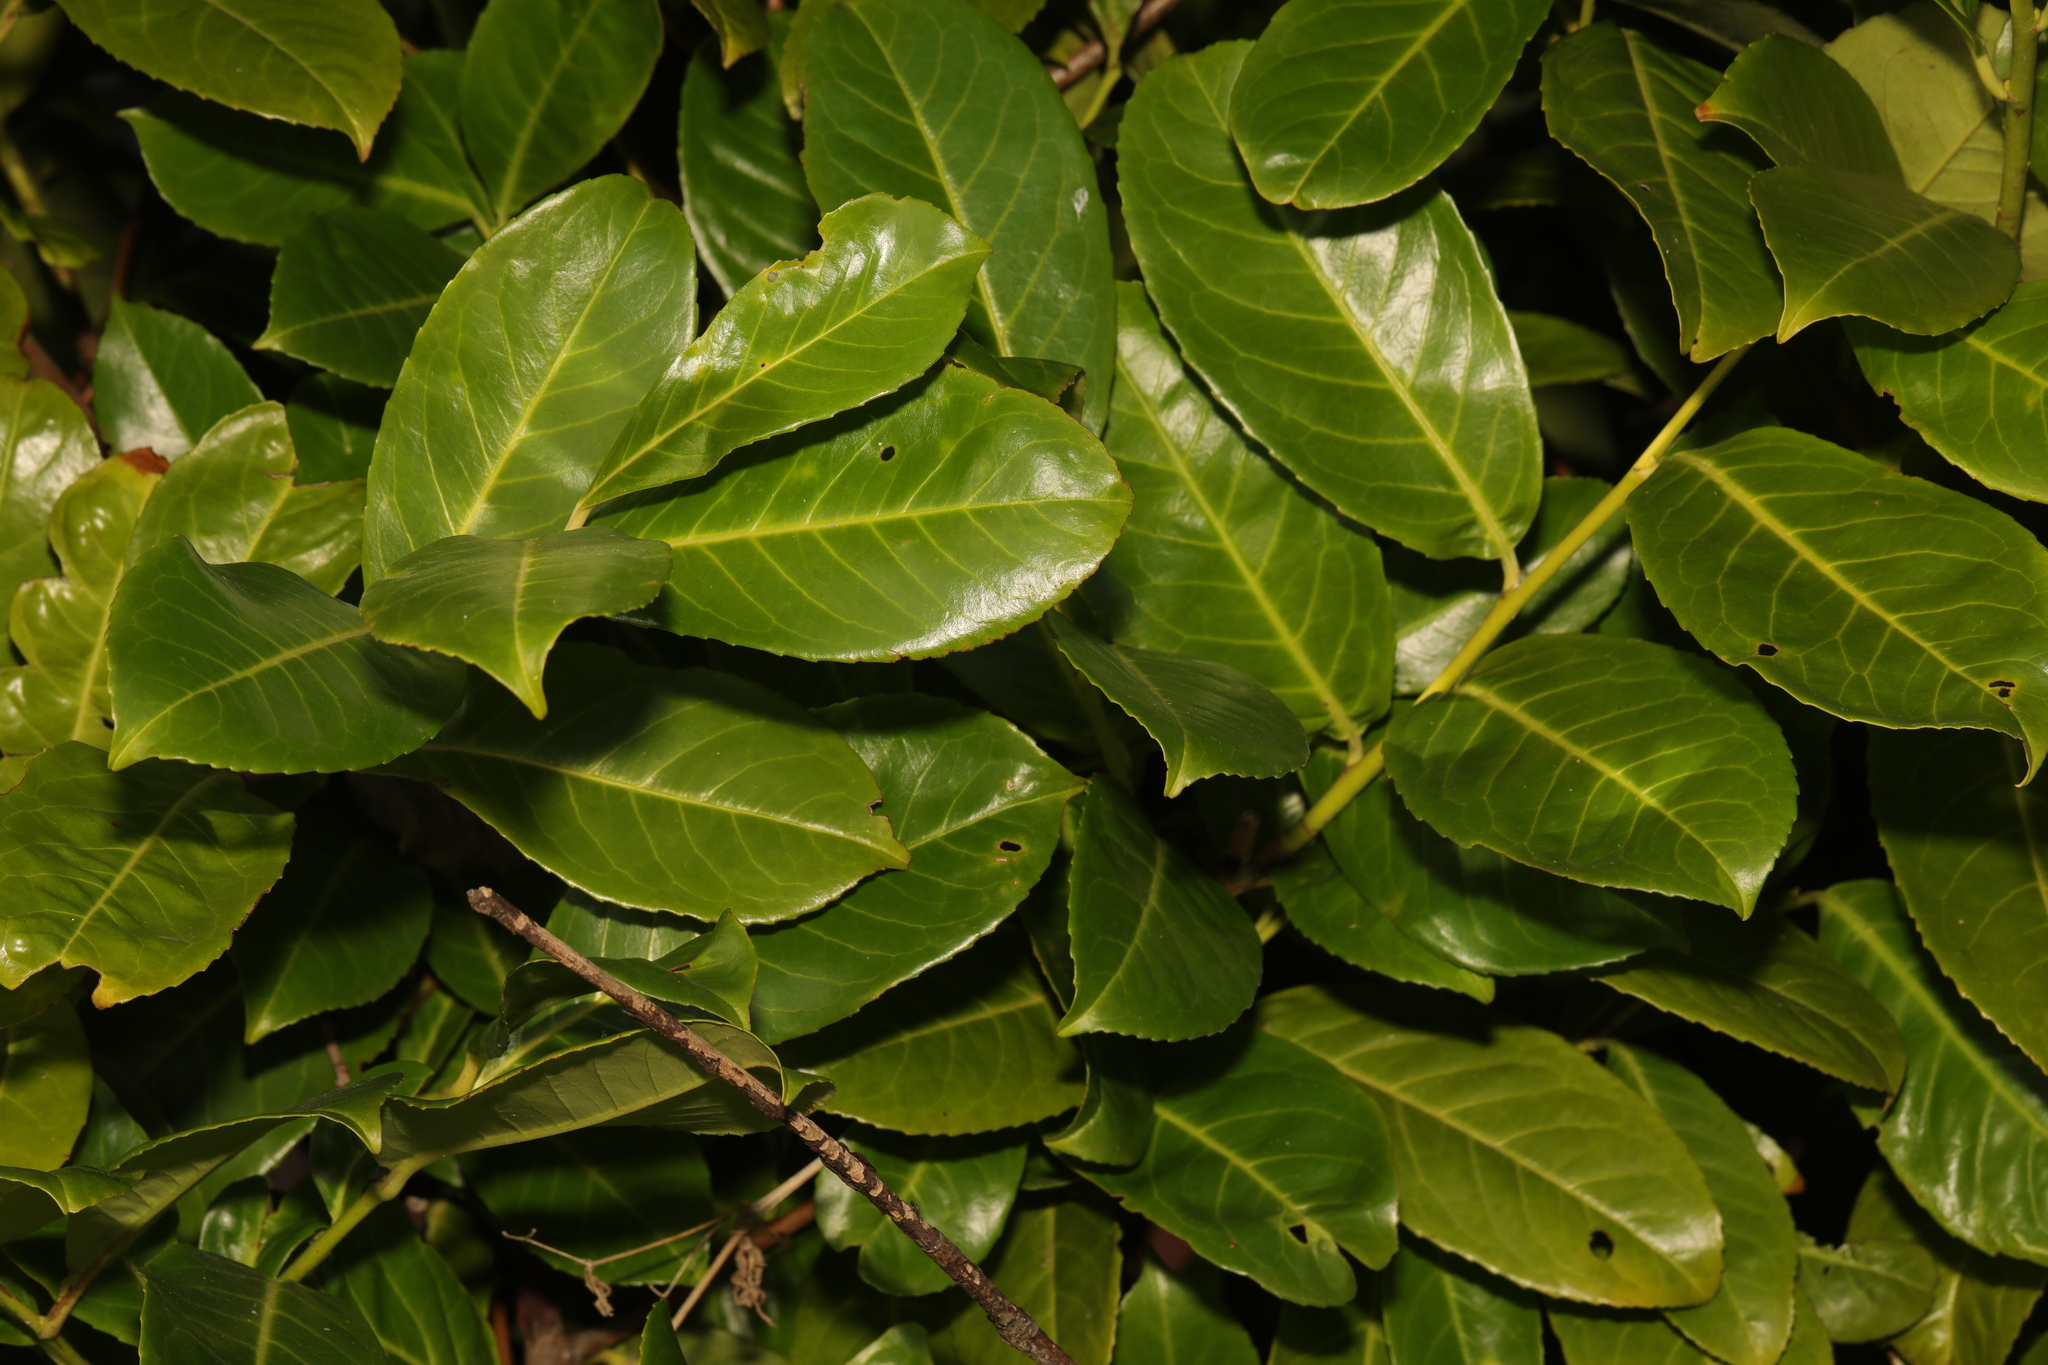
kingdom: Plantae
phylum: Tracheophyta
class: Magnoliopsida
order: Rosales
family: Rosaceae
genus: Prunus
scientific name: Prunus laurocerasus
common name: Cherry laurel
